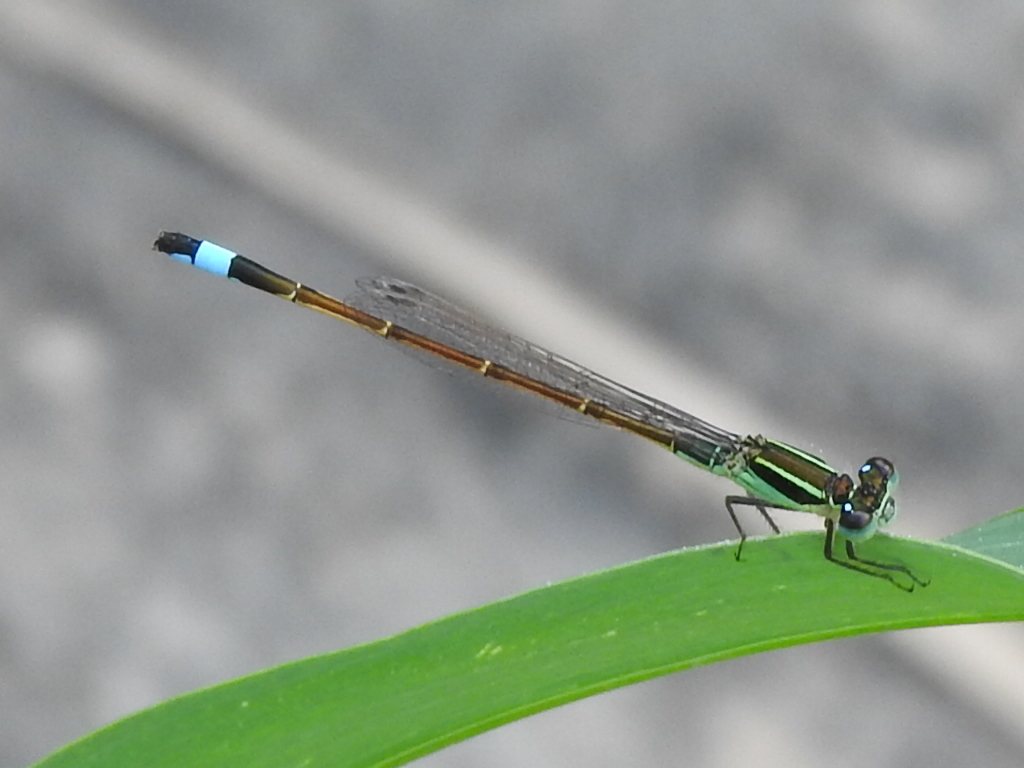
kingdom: Animalia
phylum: Arthropoda
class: Insecta
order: Odonata
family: Coenagrionidae
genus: Ischnura
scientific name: Ischnura ramburii
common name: Rambur's forktail
